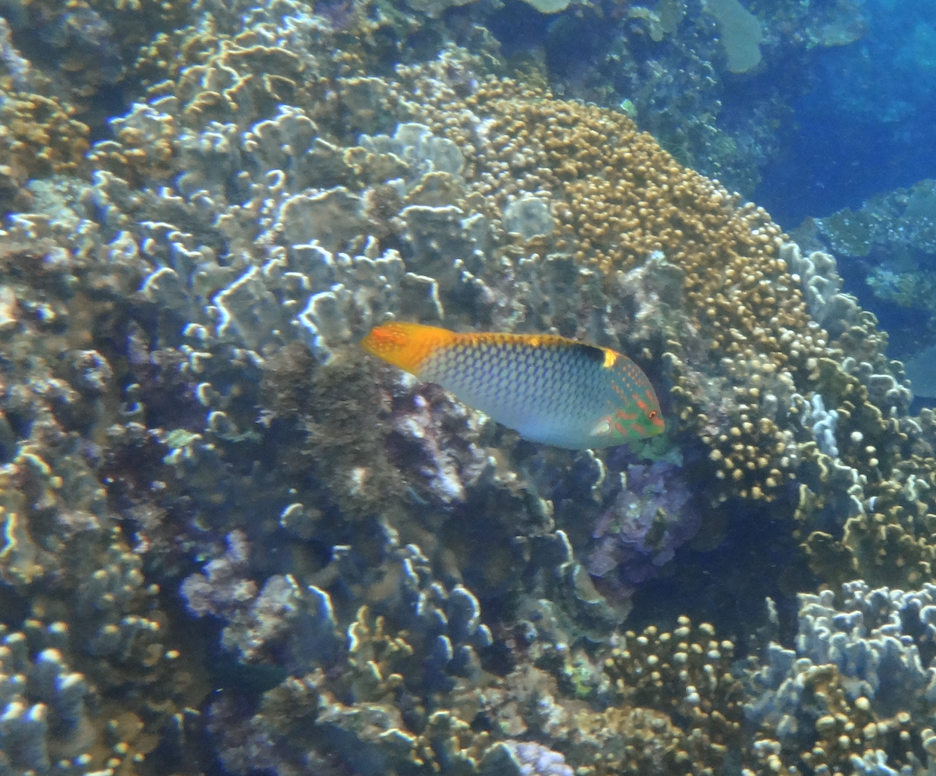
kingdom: Animalia
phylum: Chordata
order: Perciformes
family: Labridae
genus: Halichoeres
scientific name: Halichoeres hortulanus
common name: Checkerboard wrasse
